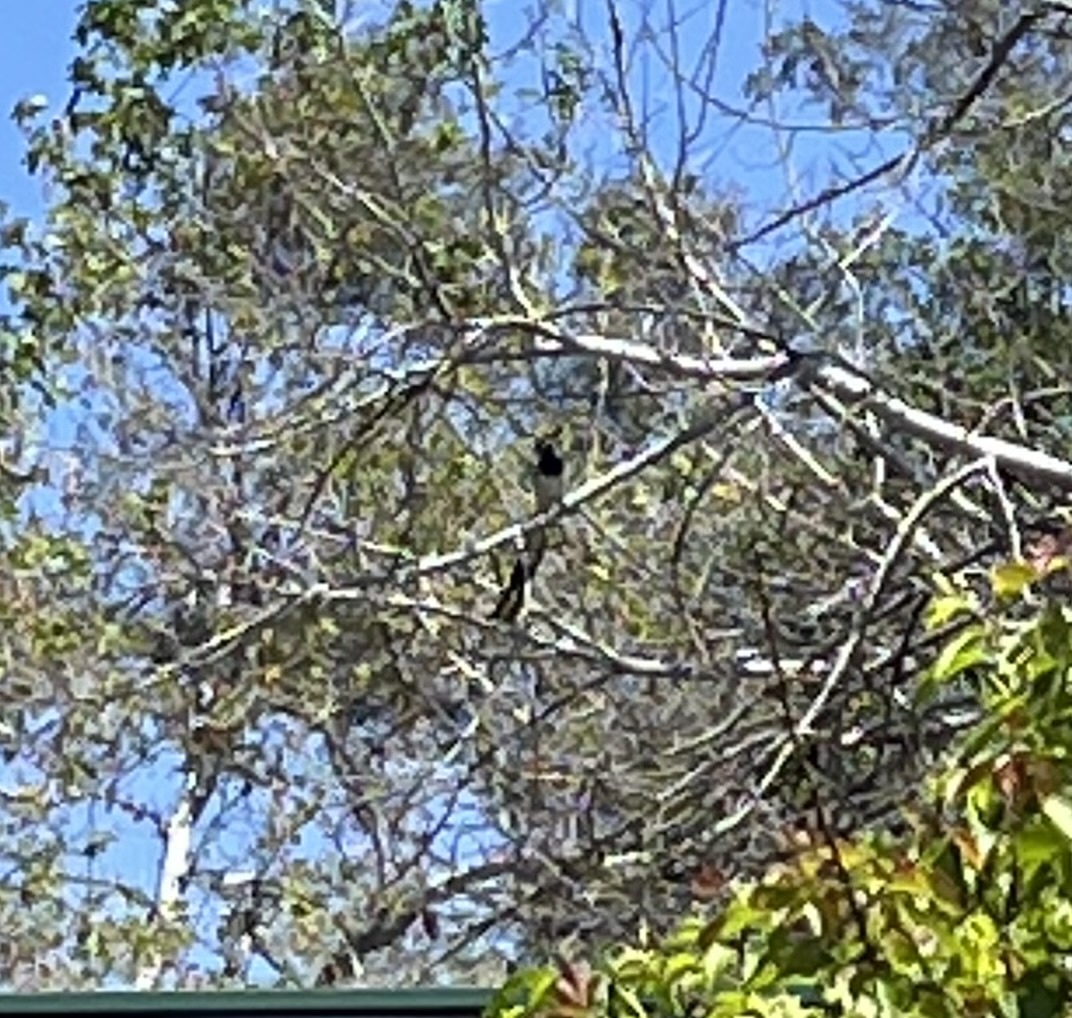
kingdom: Animalia
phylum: Chordata
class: Aves
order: Passeriformes
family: Corvidae
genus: Calocitta
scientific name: Calocitta colliei
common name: Black-throated magpie-jay
